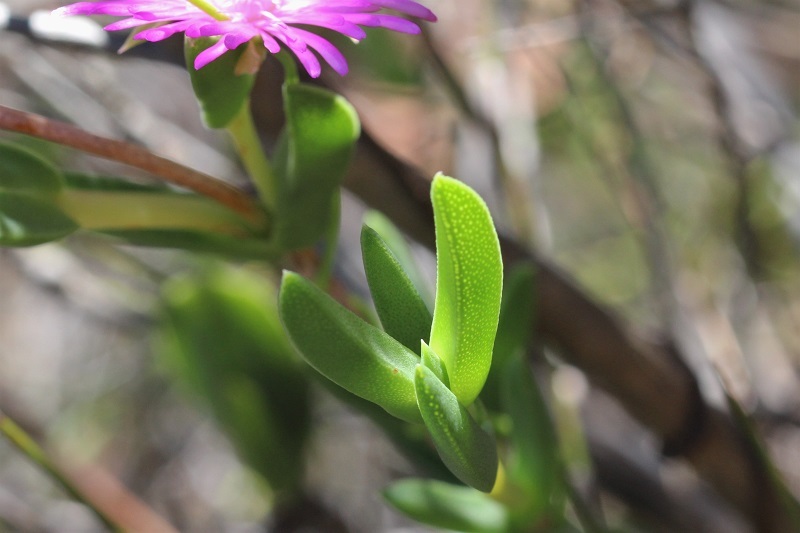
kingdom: Plantae
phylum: Tracheophyta
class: Magnoliopsida
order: Caryophyllales
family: Aizoaceae
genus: Esterhuysenia
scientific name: Esterhuysenia knysnana
